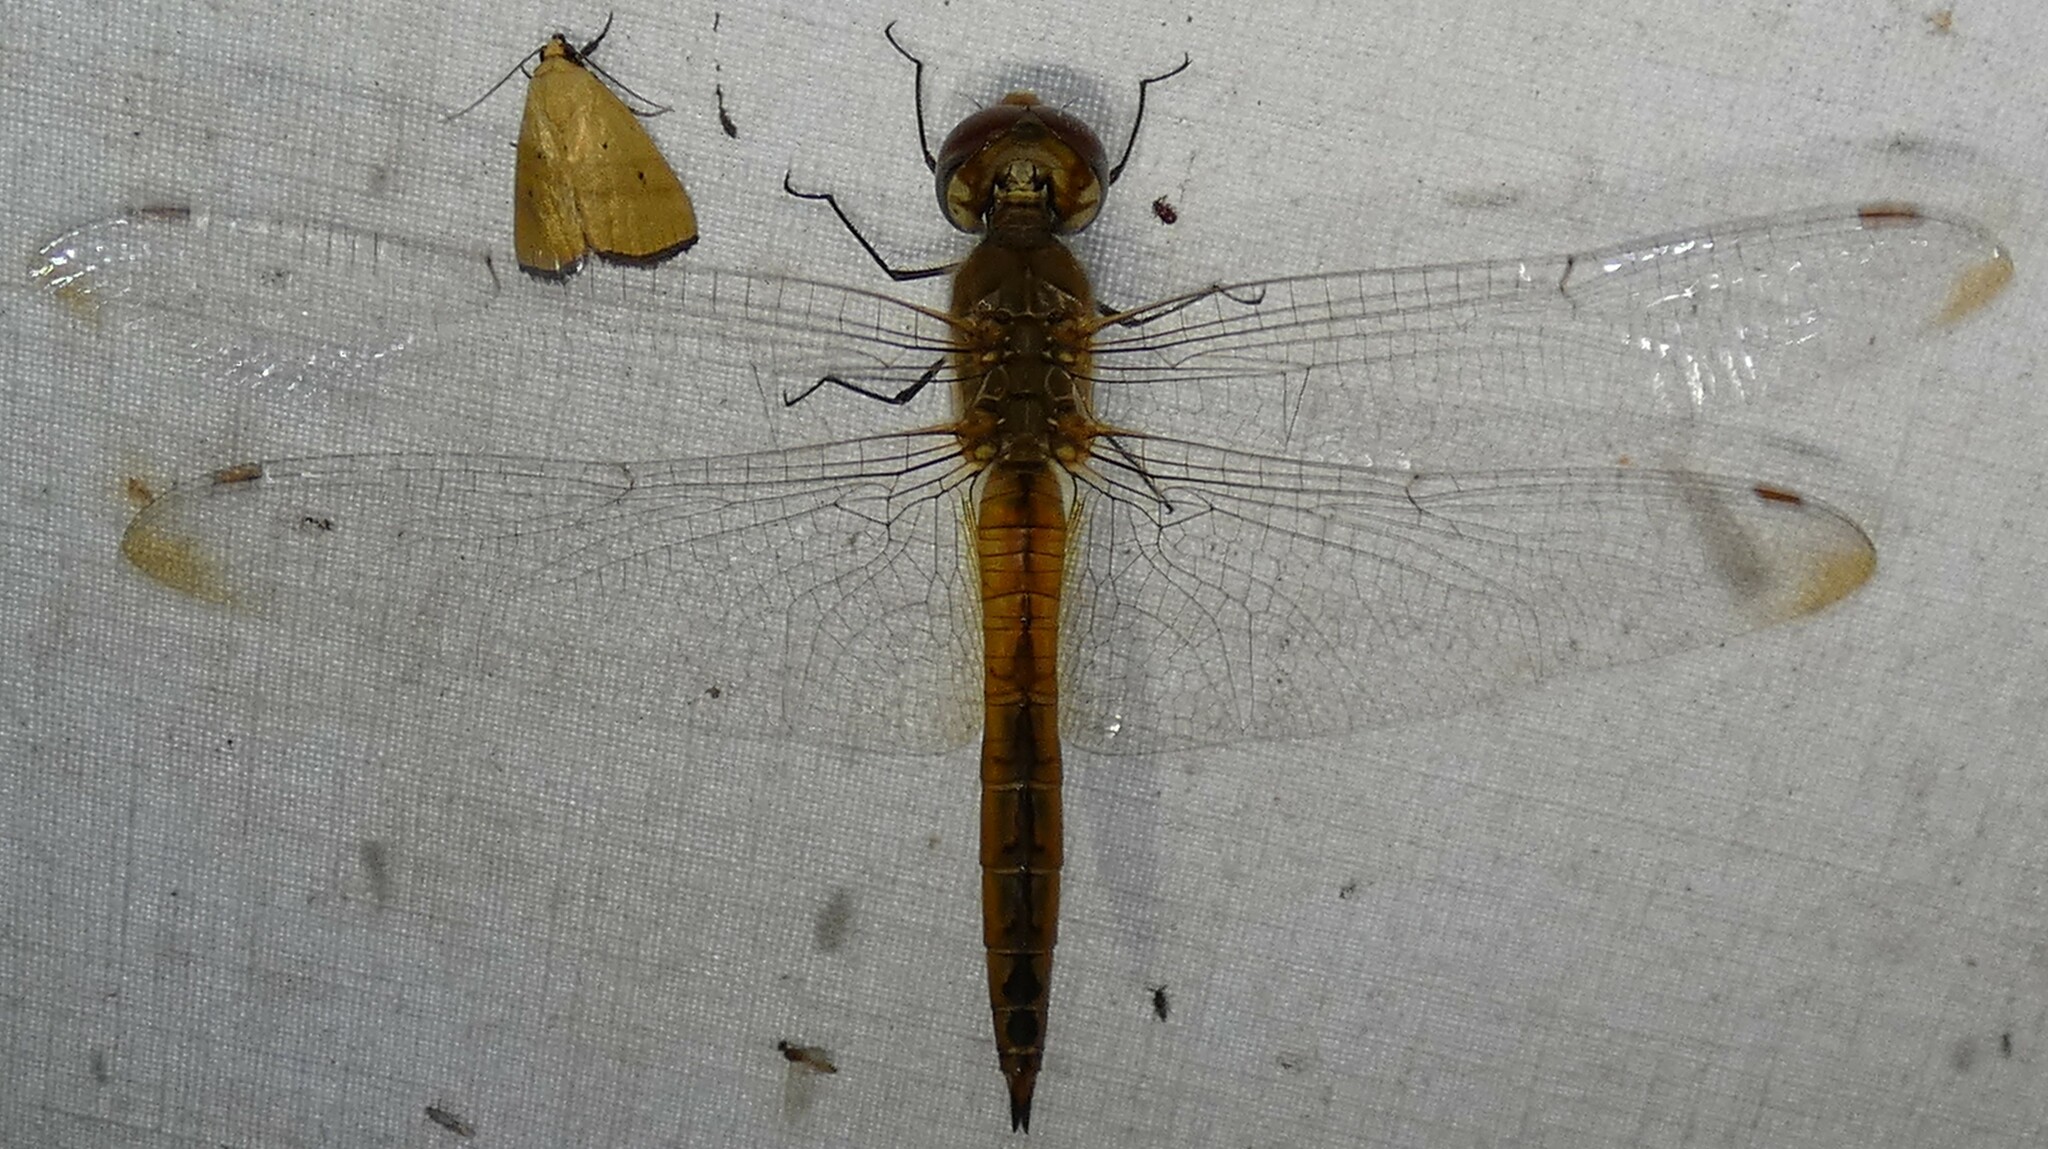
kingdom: Animalia
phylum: Arthropoda
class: Insecta
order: Odonata
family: Libellulidae
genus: Pantala
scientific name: Pantala flavescens
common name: Wandering glider
